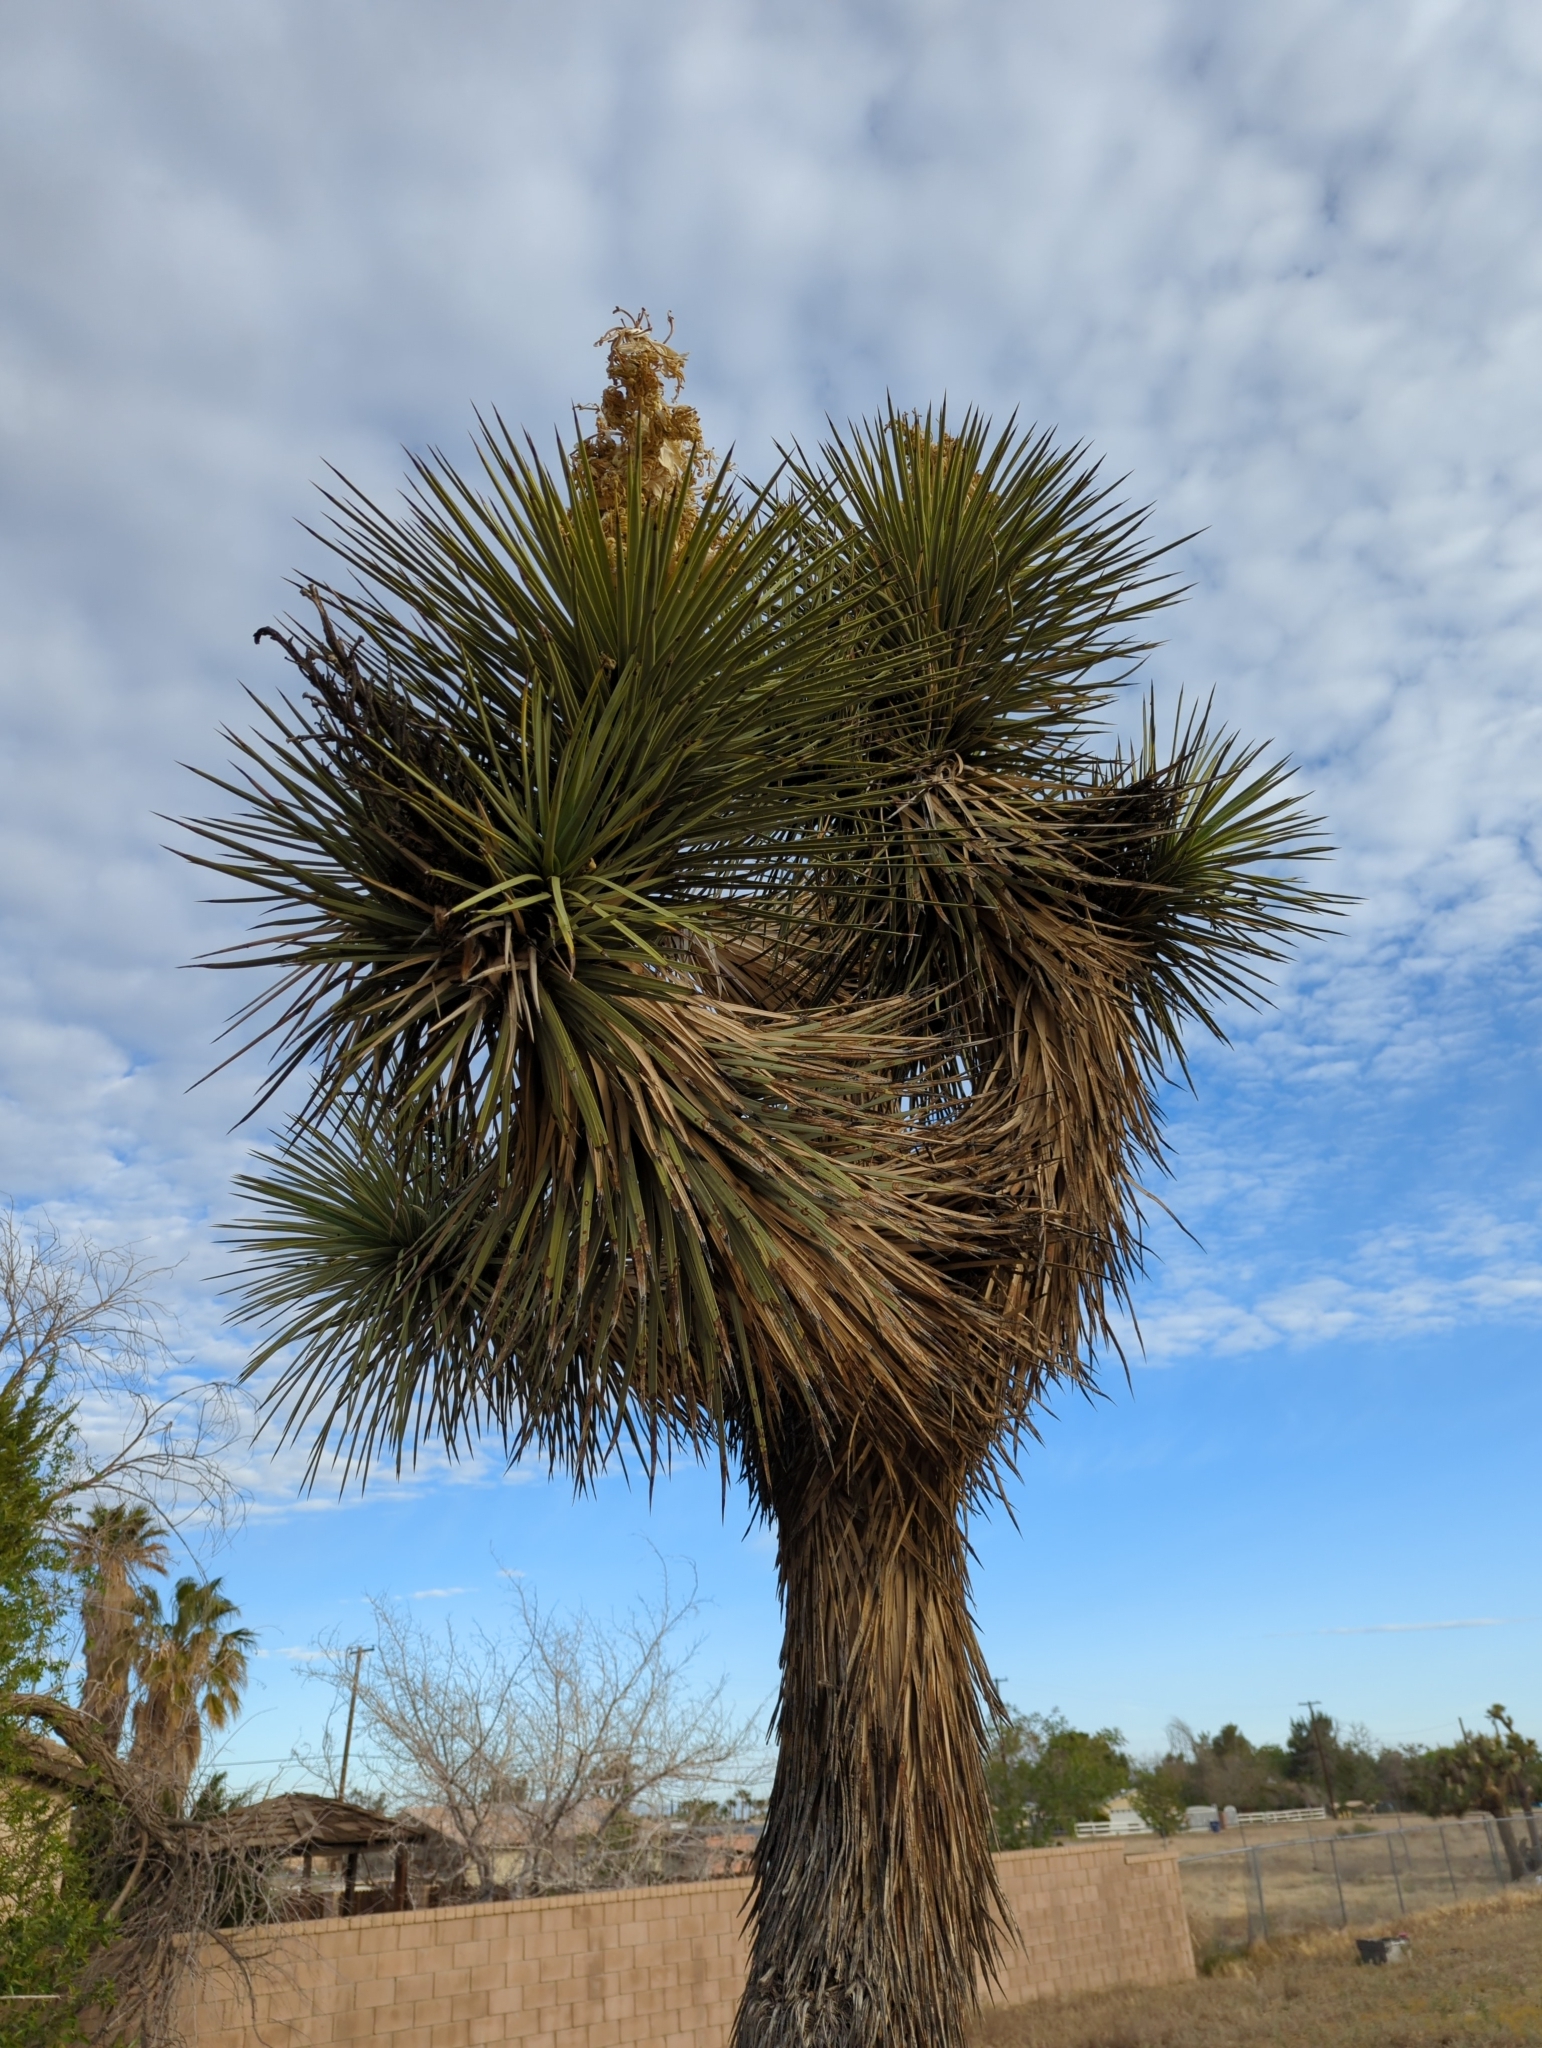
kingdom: Plantae
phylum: Tracheophyta
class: Liliopsida
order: Asparagales
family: Asparagaceae
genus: Yucca
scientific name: Yucca brevifolia
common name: Joshua tree
